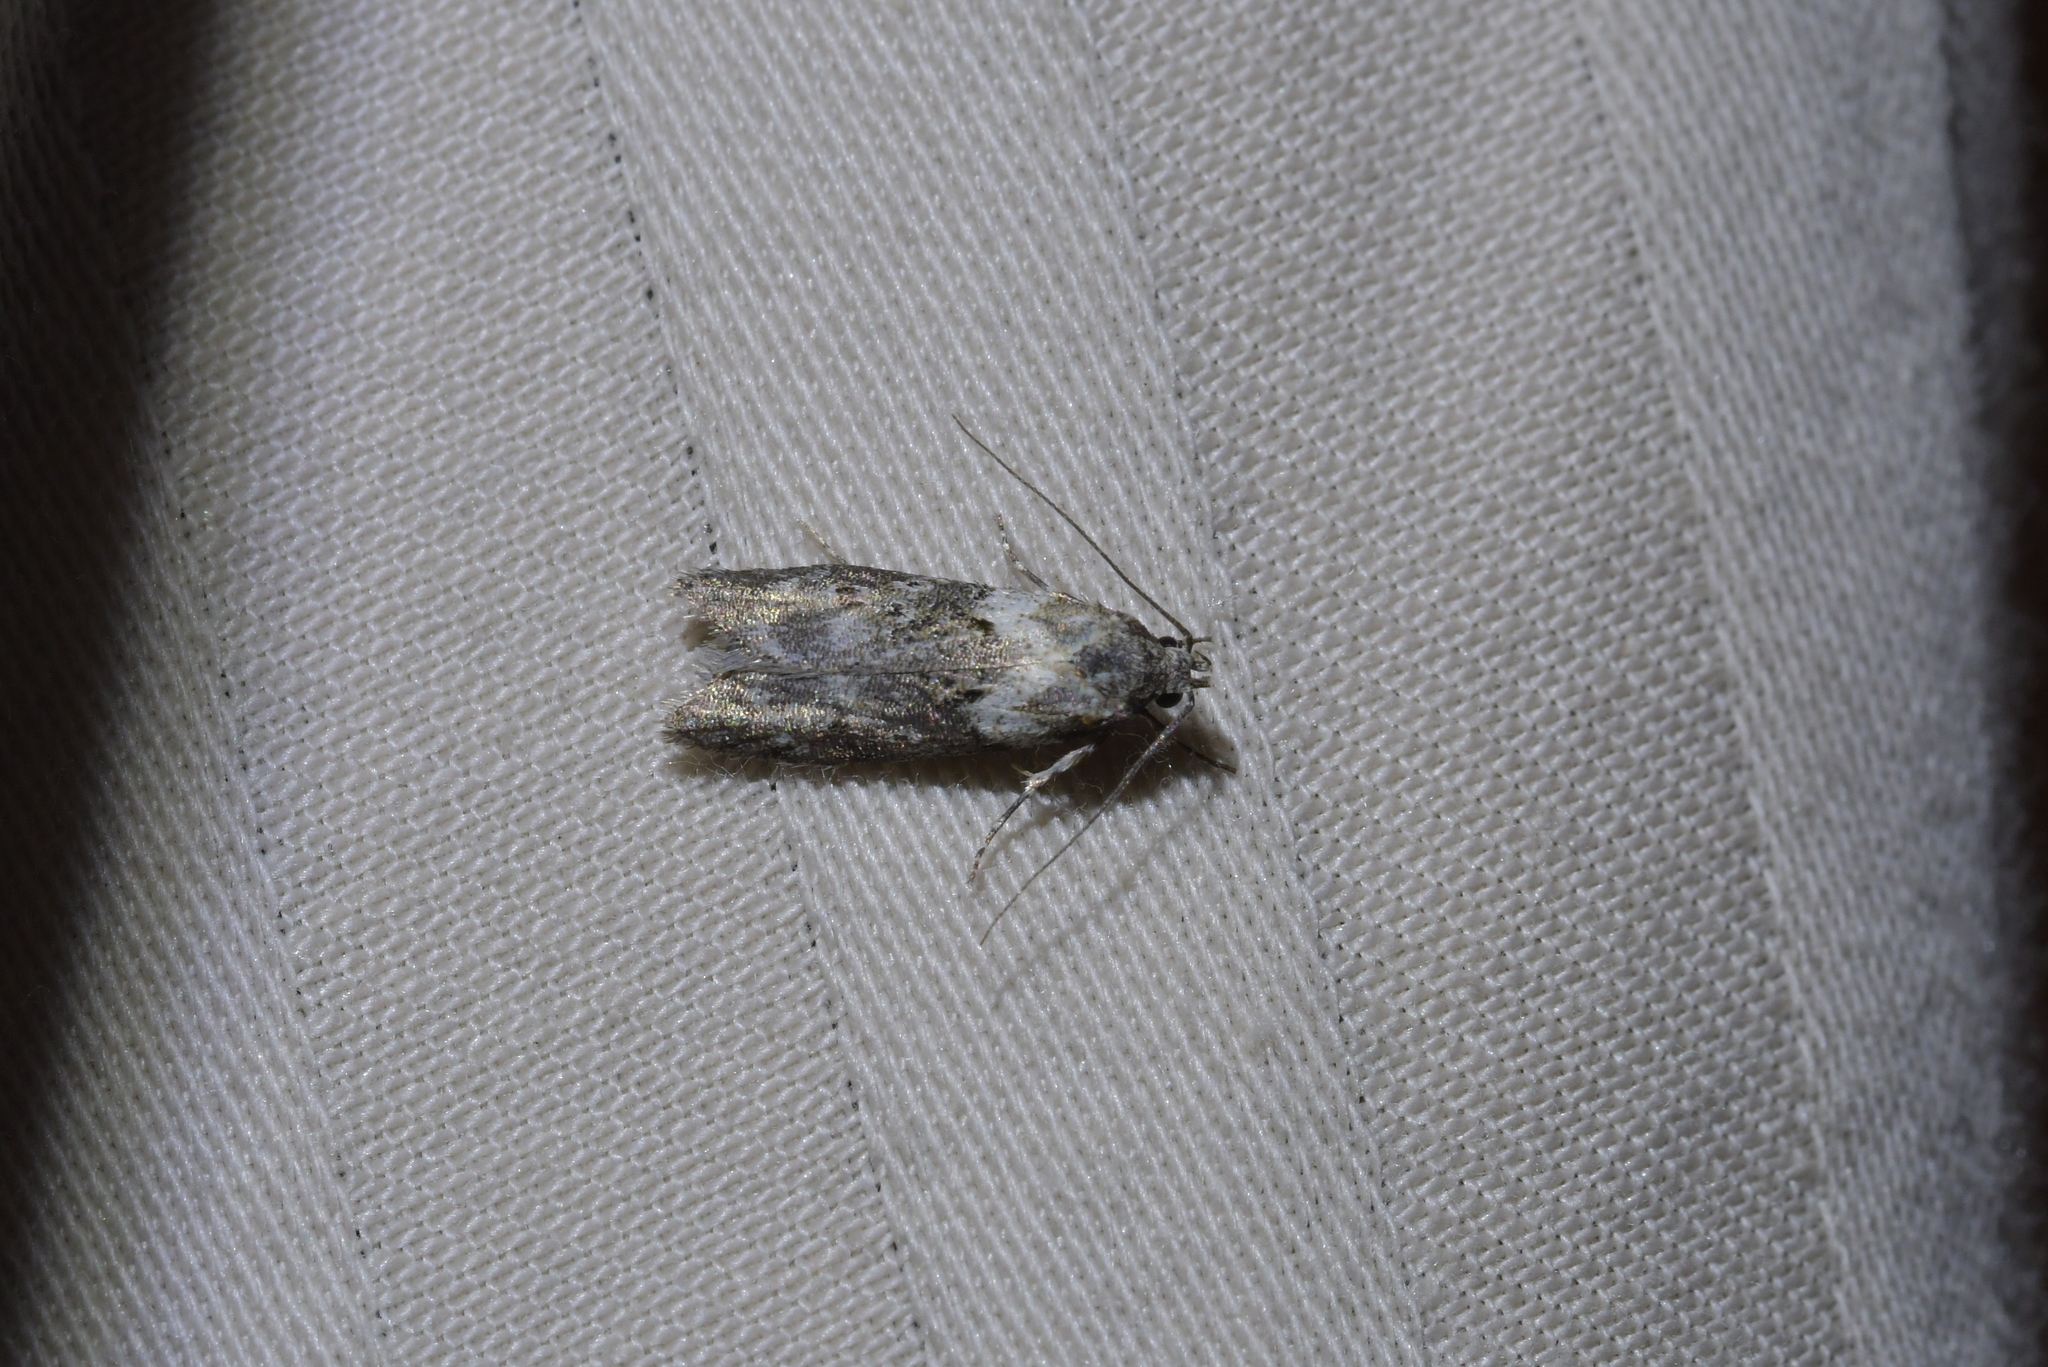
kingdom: Animalia
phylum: Arthropoda
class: Insecta
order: Lepidoptera
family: Oecophoridae
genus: Izatha
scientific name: Izatha convulsella
